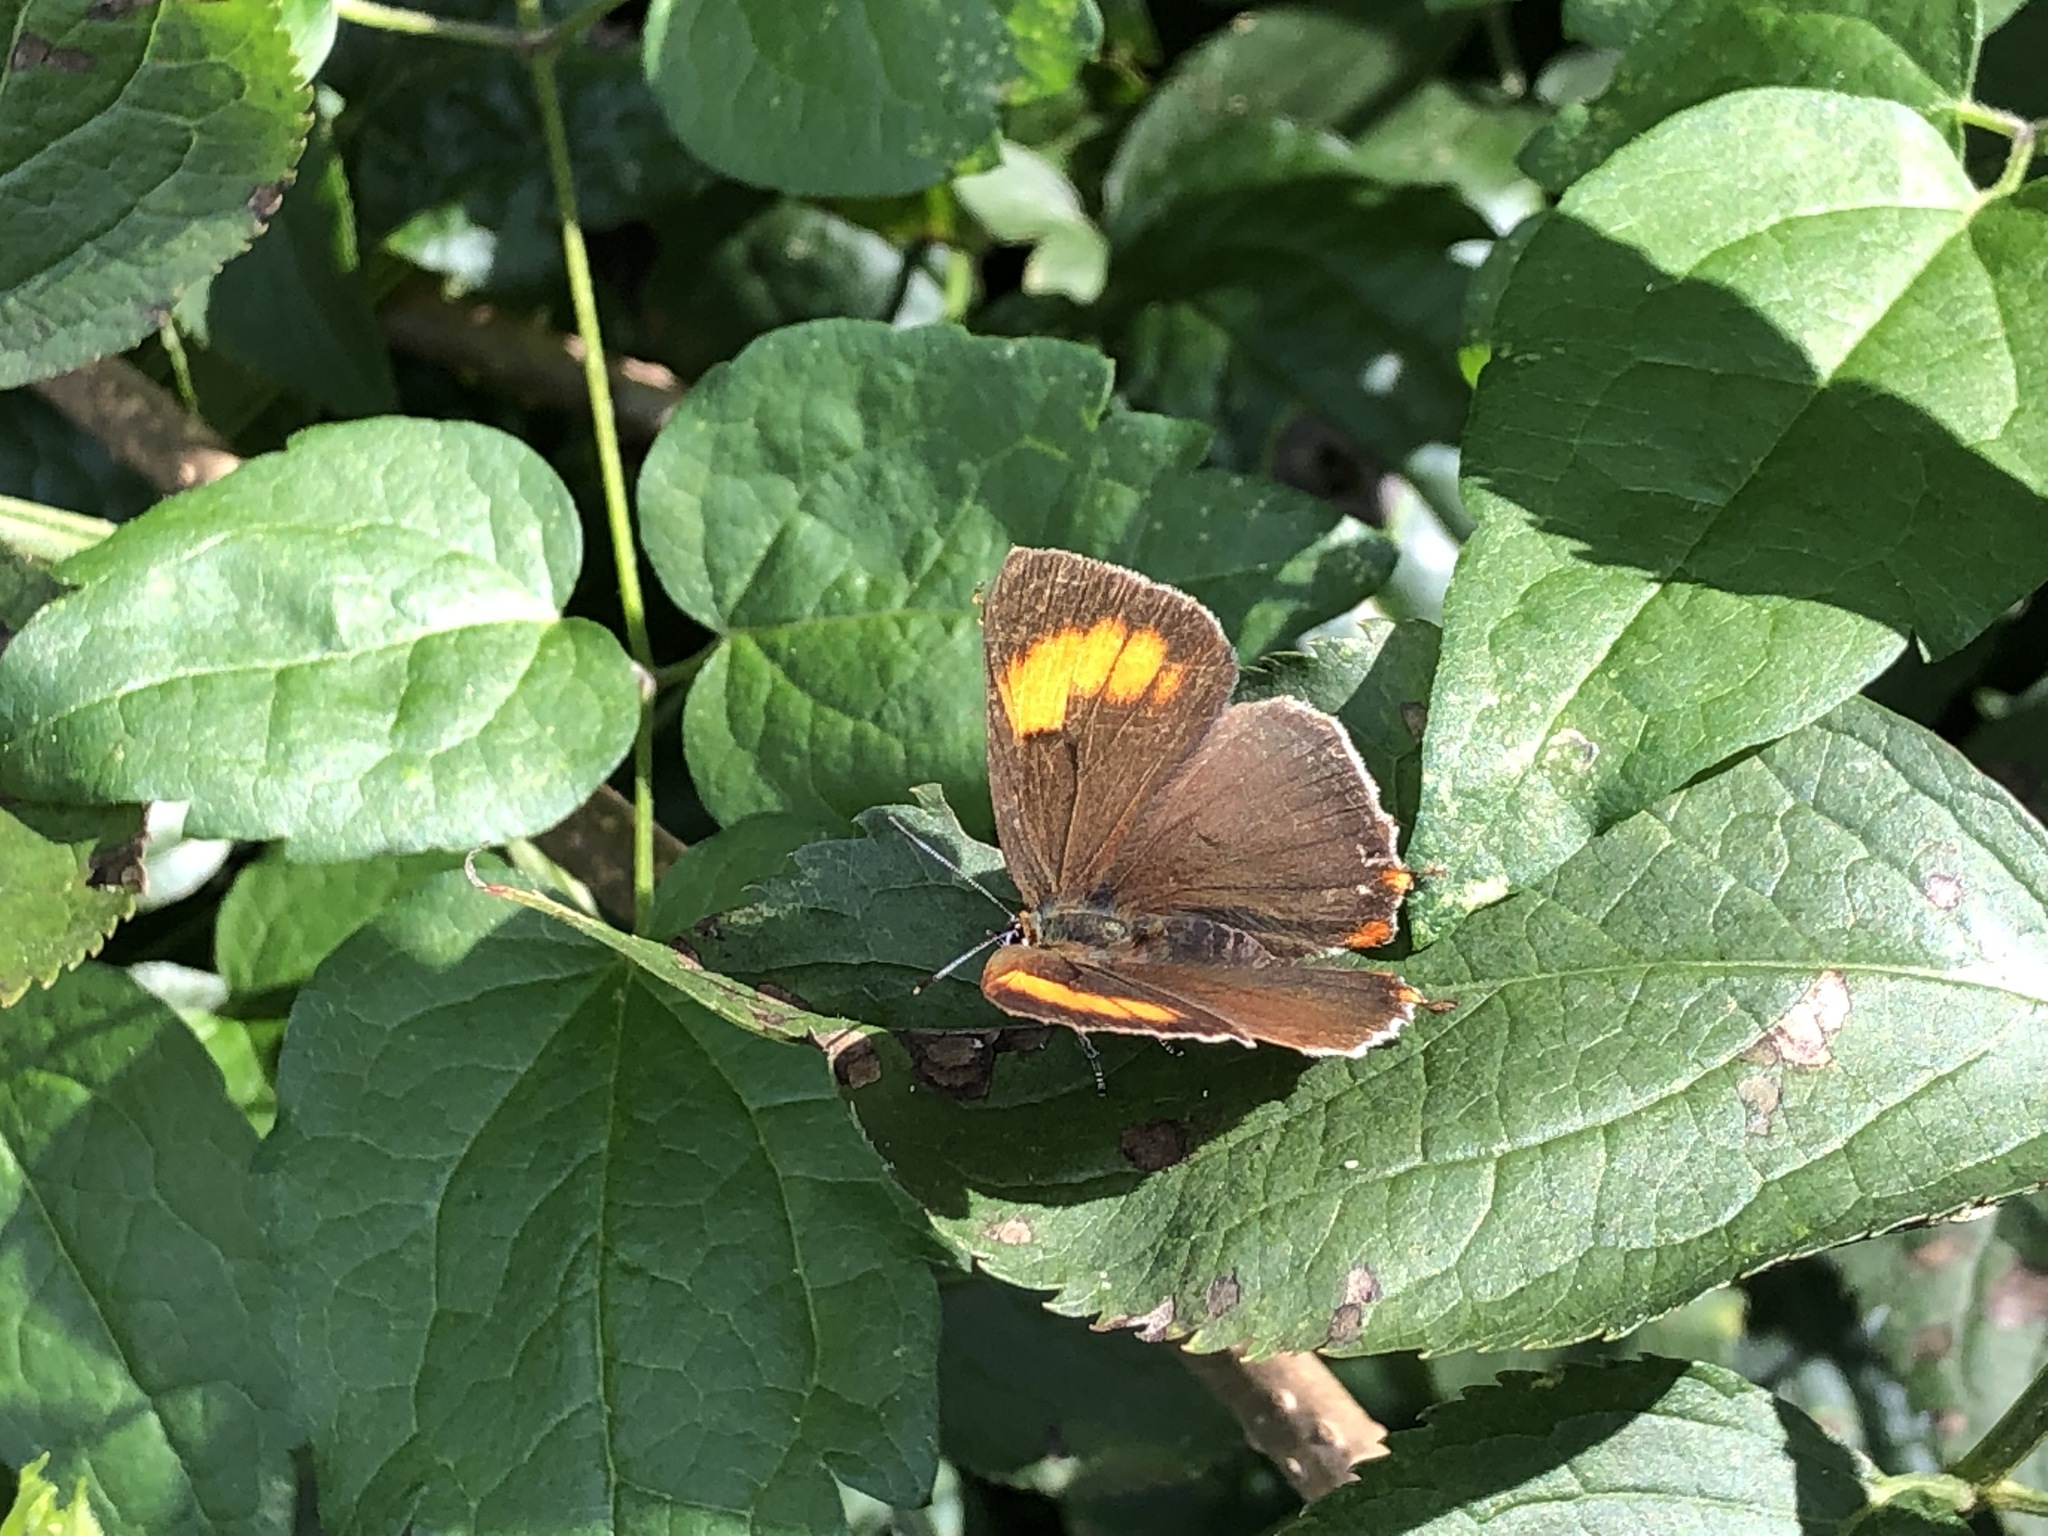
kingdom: Animalia
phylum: Arthropoda
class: Insecta
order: Lepidoptera
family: Lycaenidae
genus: Thecla
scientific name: Thecla betulae
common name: Brown hairstreak
